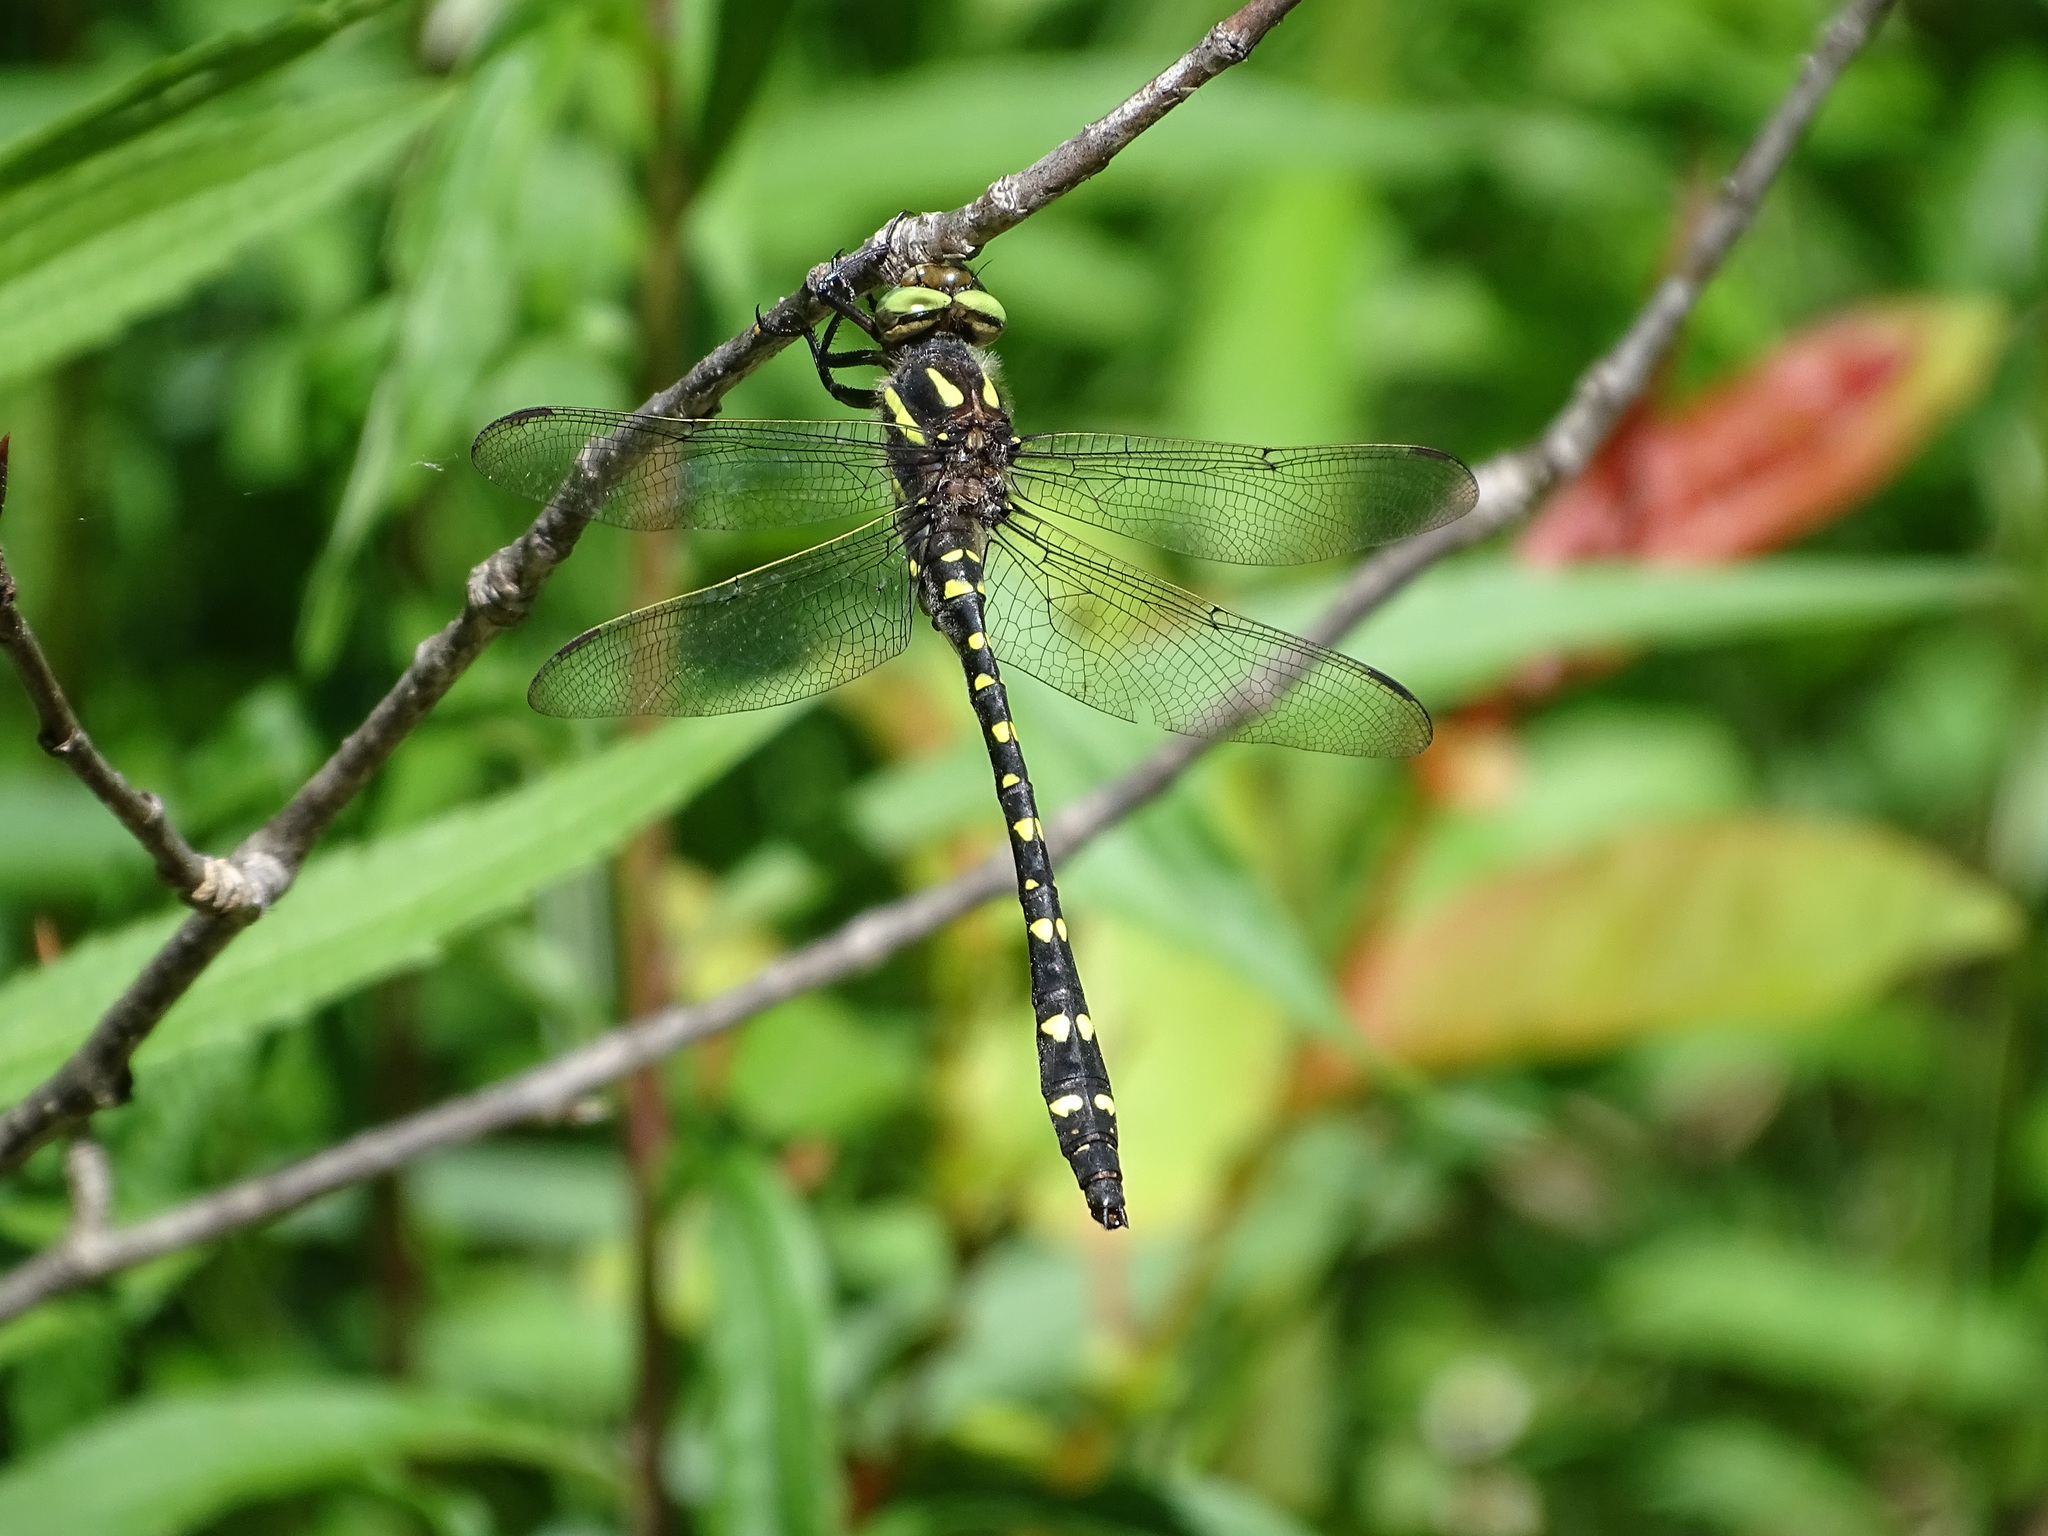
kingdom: Animalia
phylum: Arthropoda
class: Insecta
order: Odonata
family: Cordulegastridae
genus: Cordulegaster
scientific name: Cordulegaster maculata
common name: Twin-spotted spiketail
